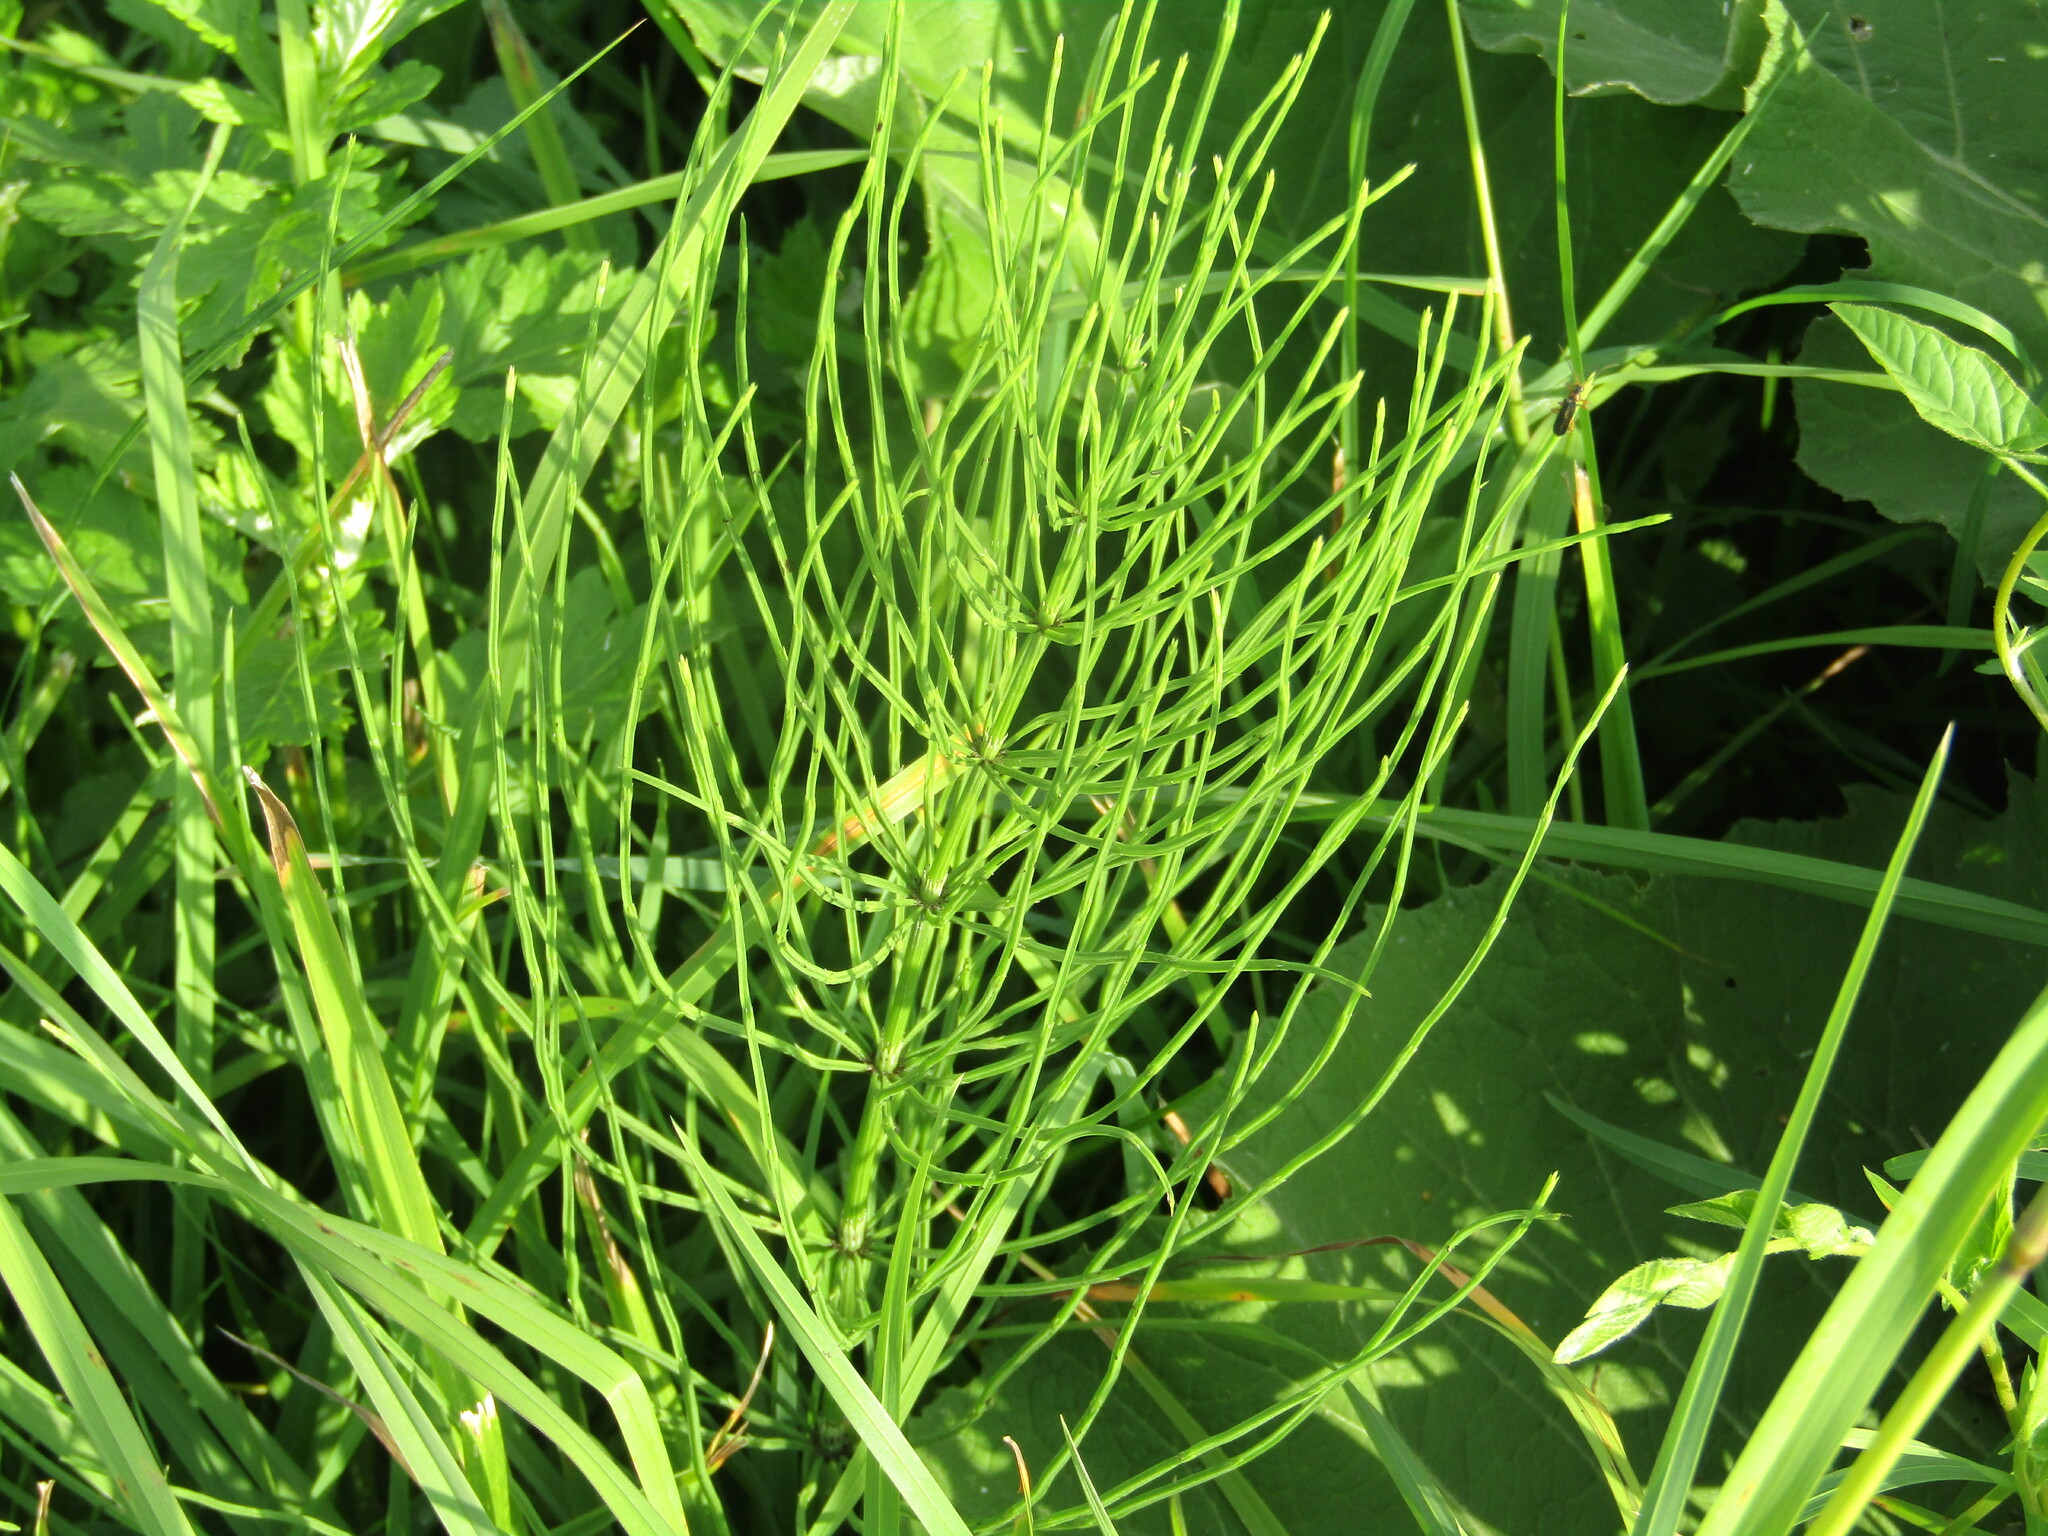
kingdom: Plantae
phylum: Tracheophyta
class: Polypodiopsida
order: Equisetales
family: Equisetaceae
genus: Equisetum
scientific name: Equisetum arvense
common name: Field horsetail
